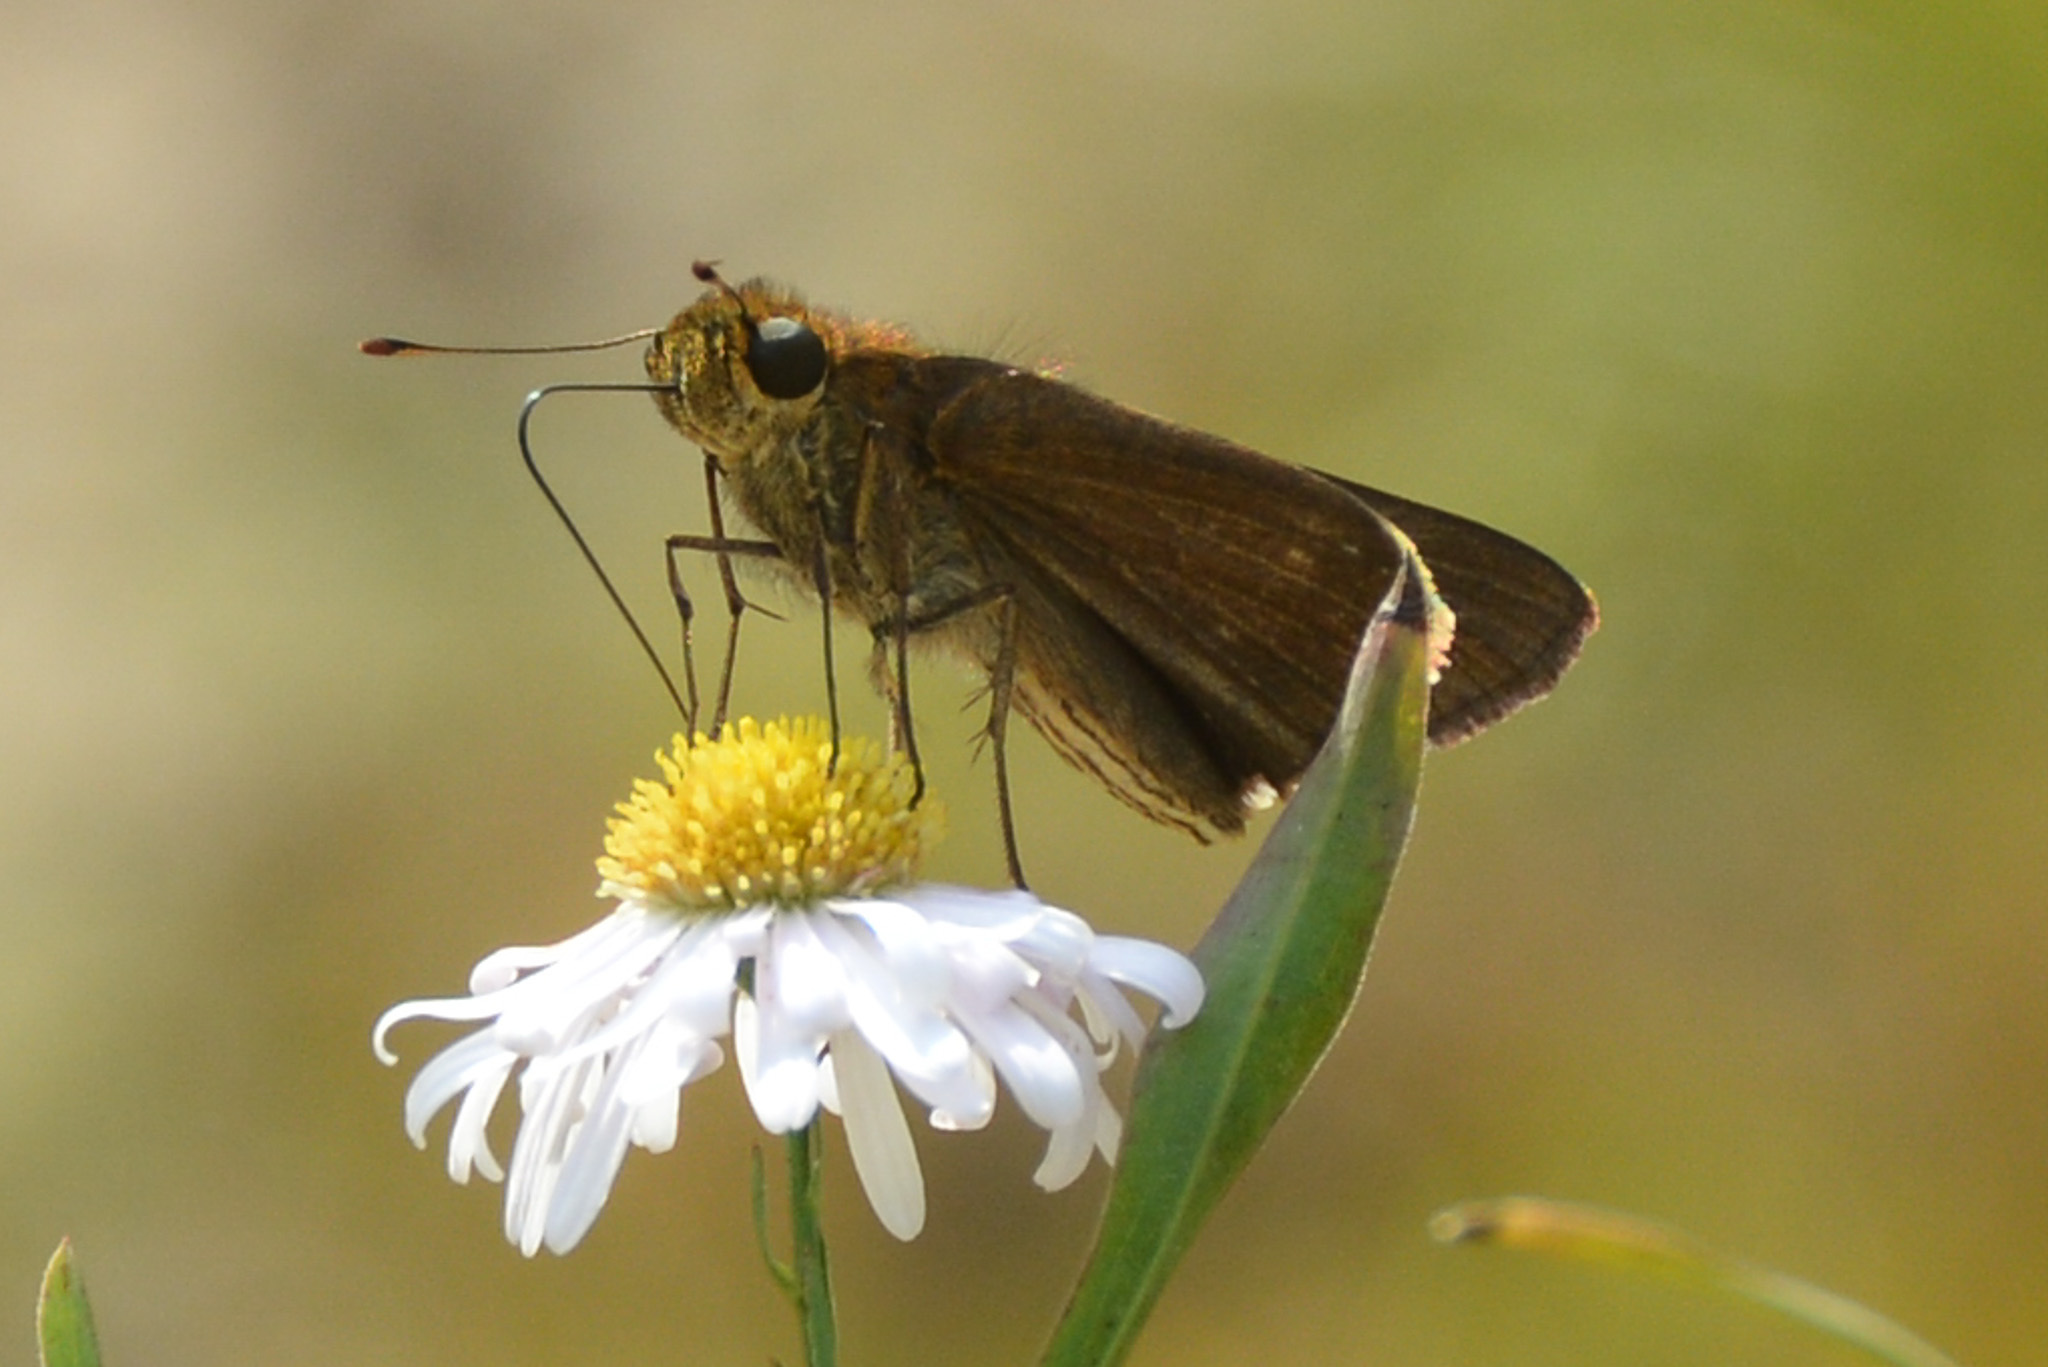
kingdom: Animalia
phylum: Arthropoda
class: Insecta
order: Lepidoptera
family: Hesperiidae
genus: Panoquina
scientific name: Panoquina ocola
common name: Ocola skipper
